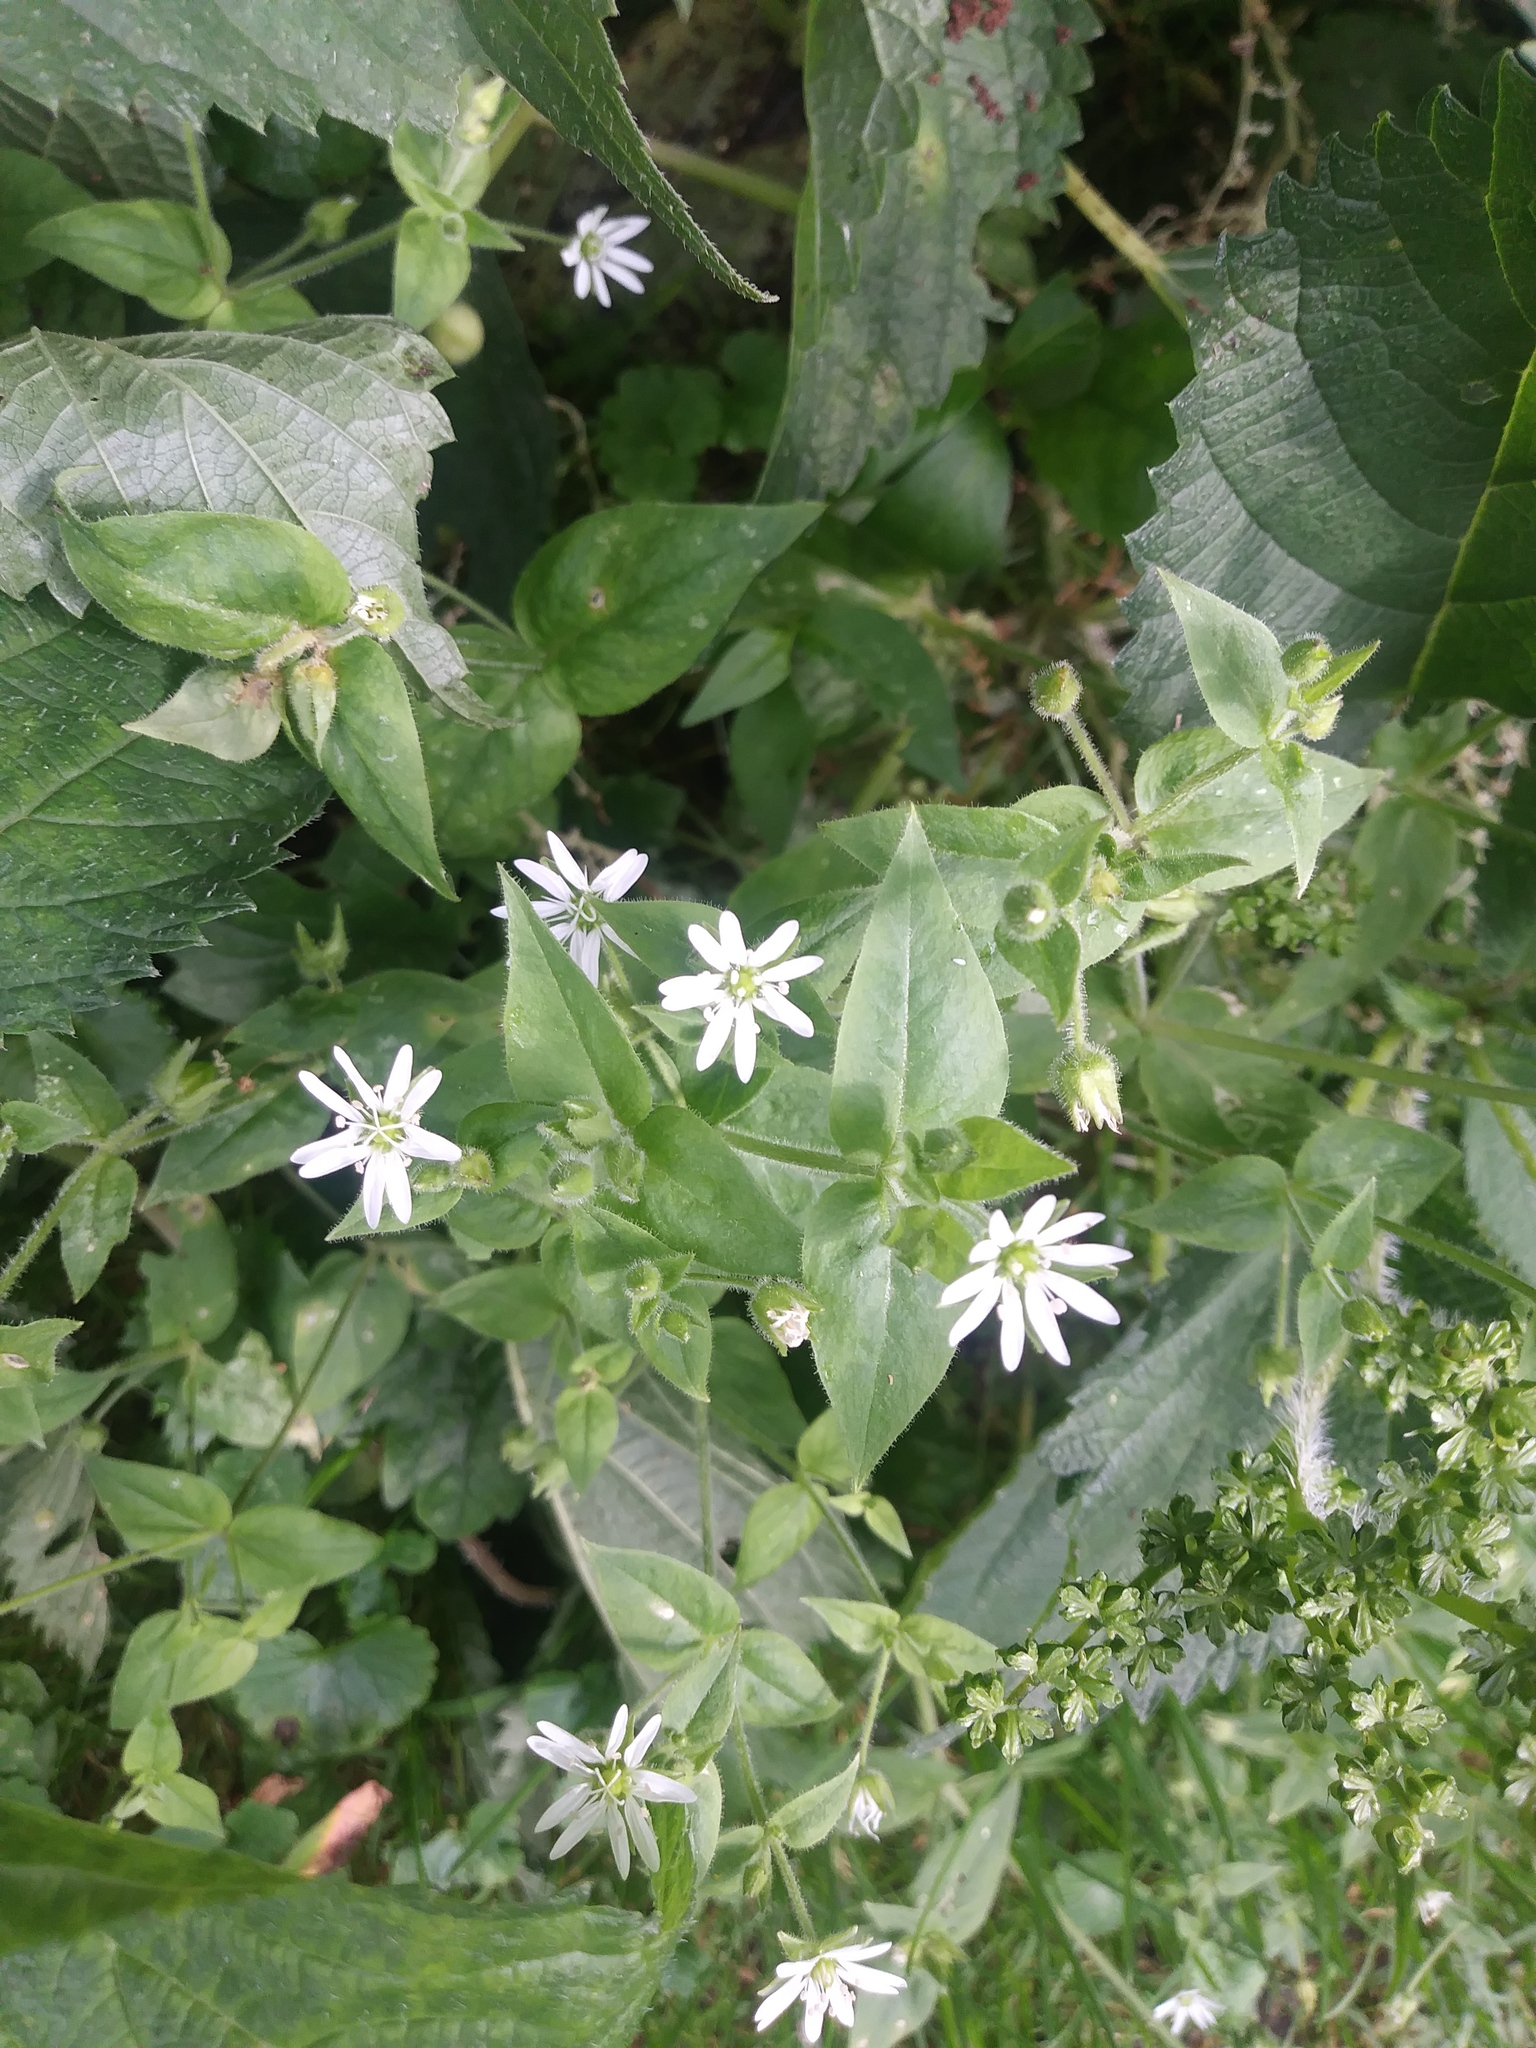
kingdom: Plantae
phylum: Tracheophyta
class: Magnoliopsida
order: Caryophyllales
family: Caryophyllaceae
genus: Stellaria
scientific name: Stellaria aquatica
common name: Water chickweed
